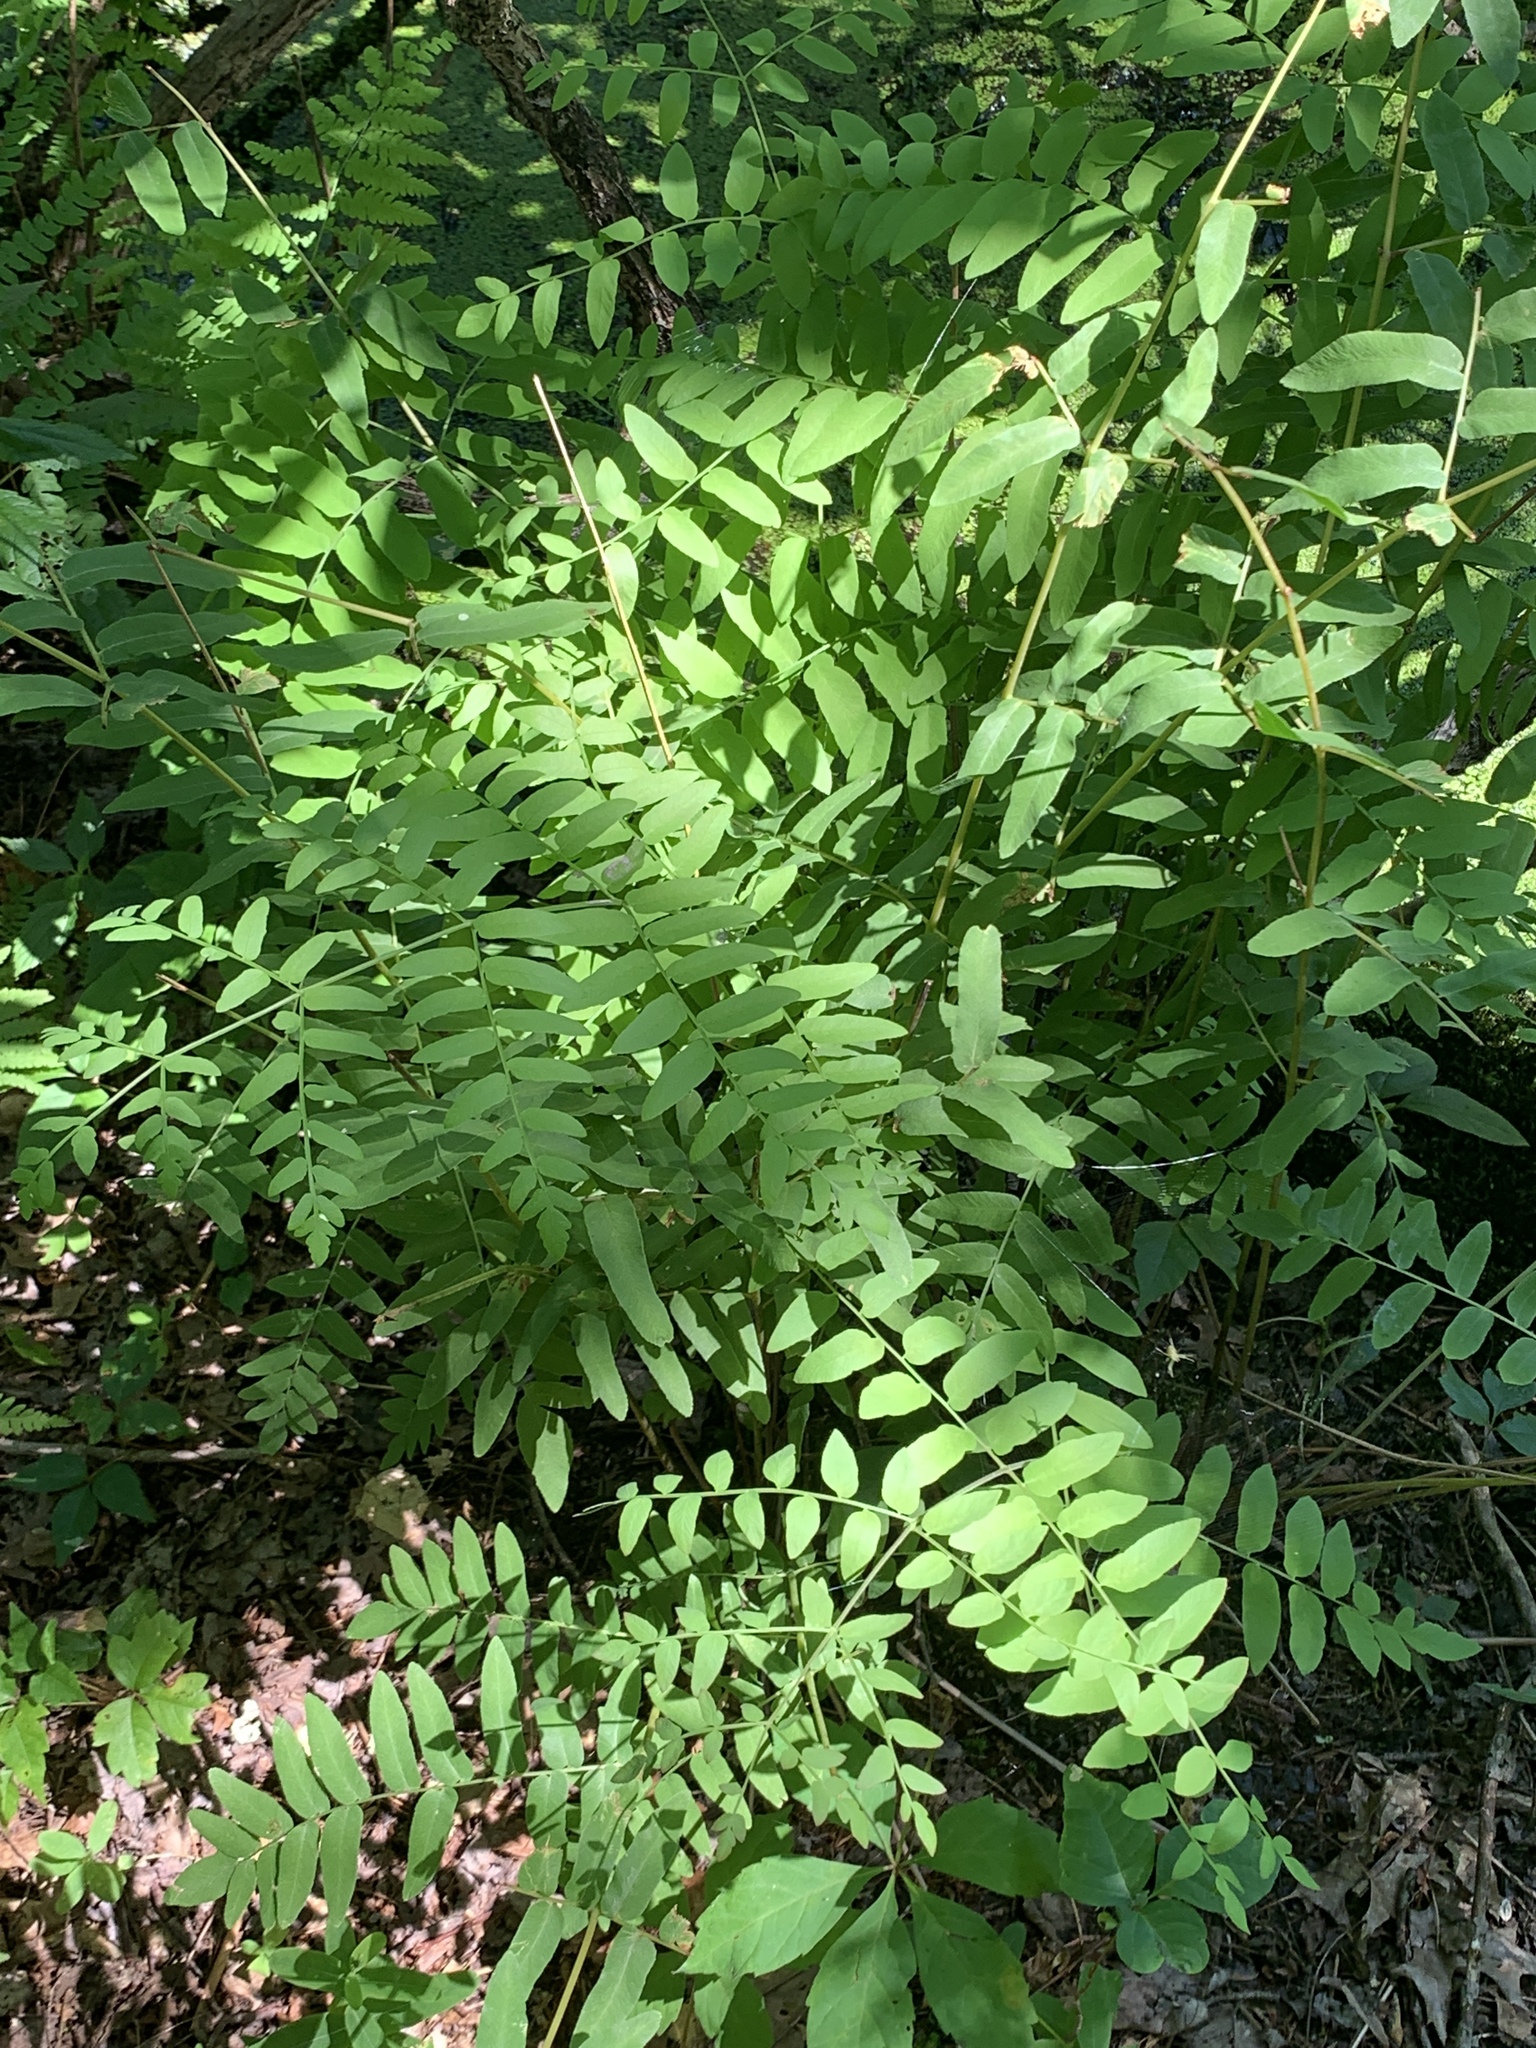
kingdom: Plantae
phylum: Tracheophyta
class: Polypodiopsida
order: Osmundales
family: Osmundaceae
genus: Osmunda
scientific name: Osmunda spectabilis
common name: American royal fern
